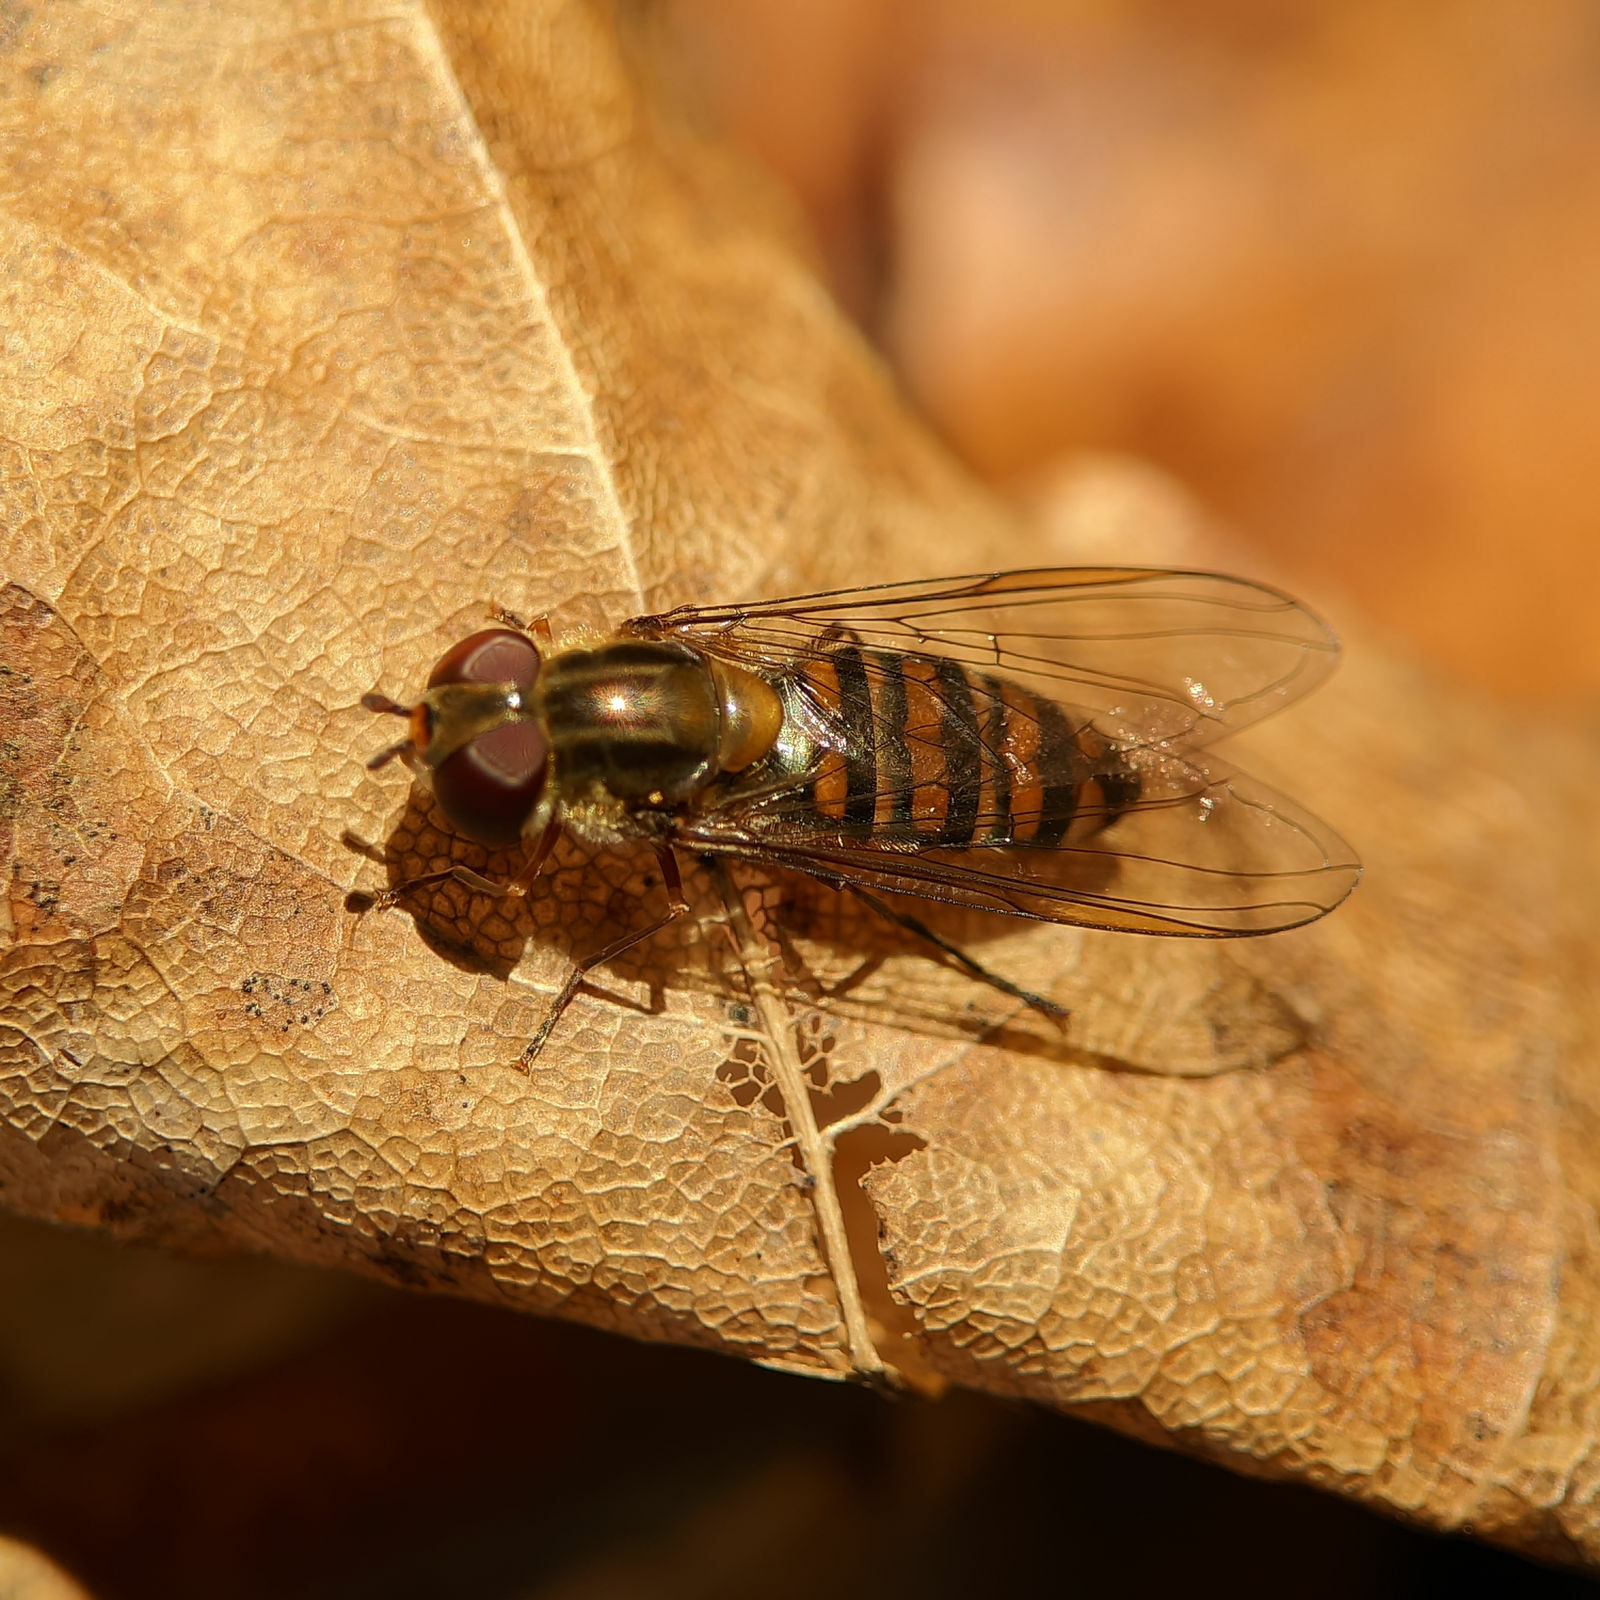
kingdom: Animalia
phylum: Arthropoda
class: Insecta
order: Diptera
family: Syrphidae
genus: Episyrphus
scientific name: Episyrphus balteatus
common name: Marmalade hoverfly
